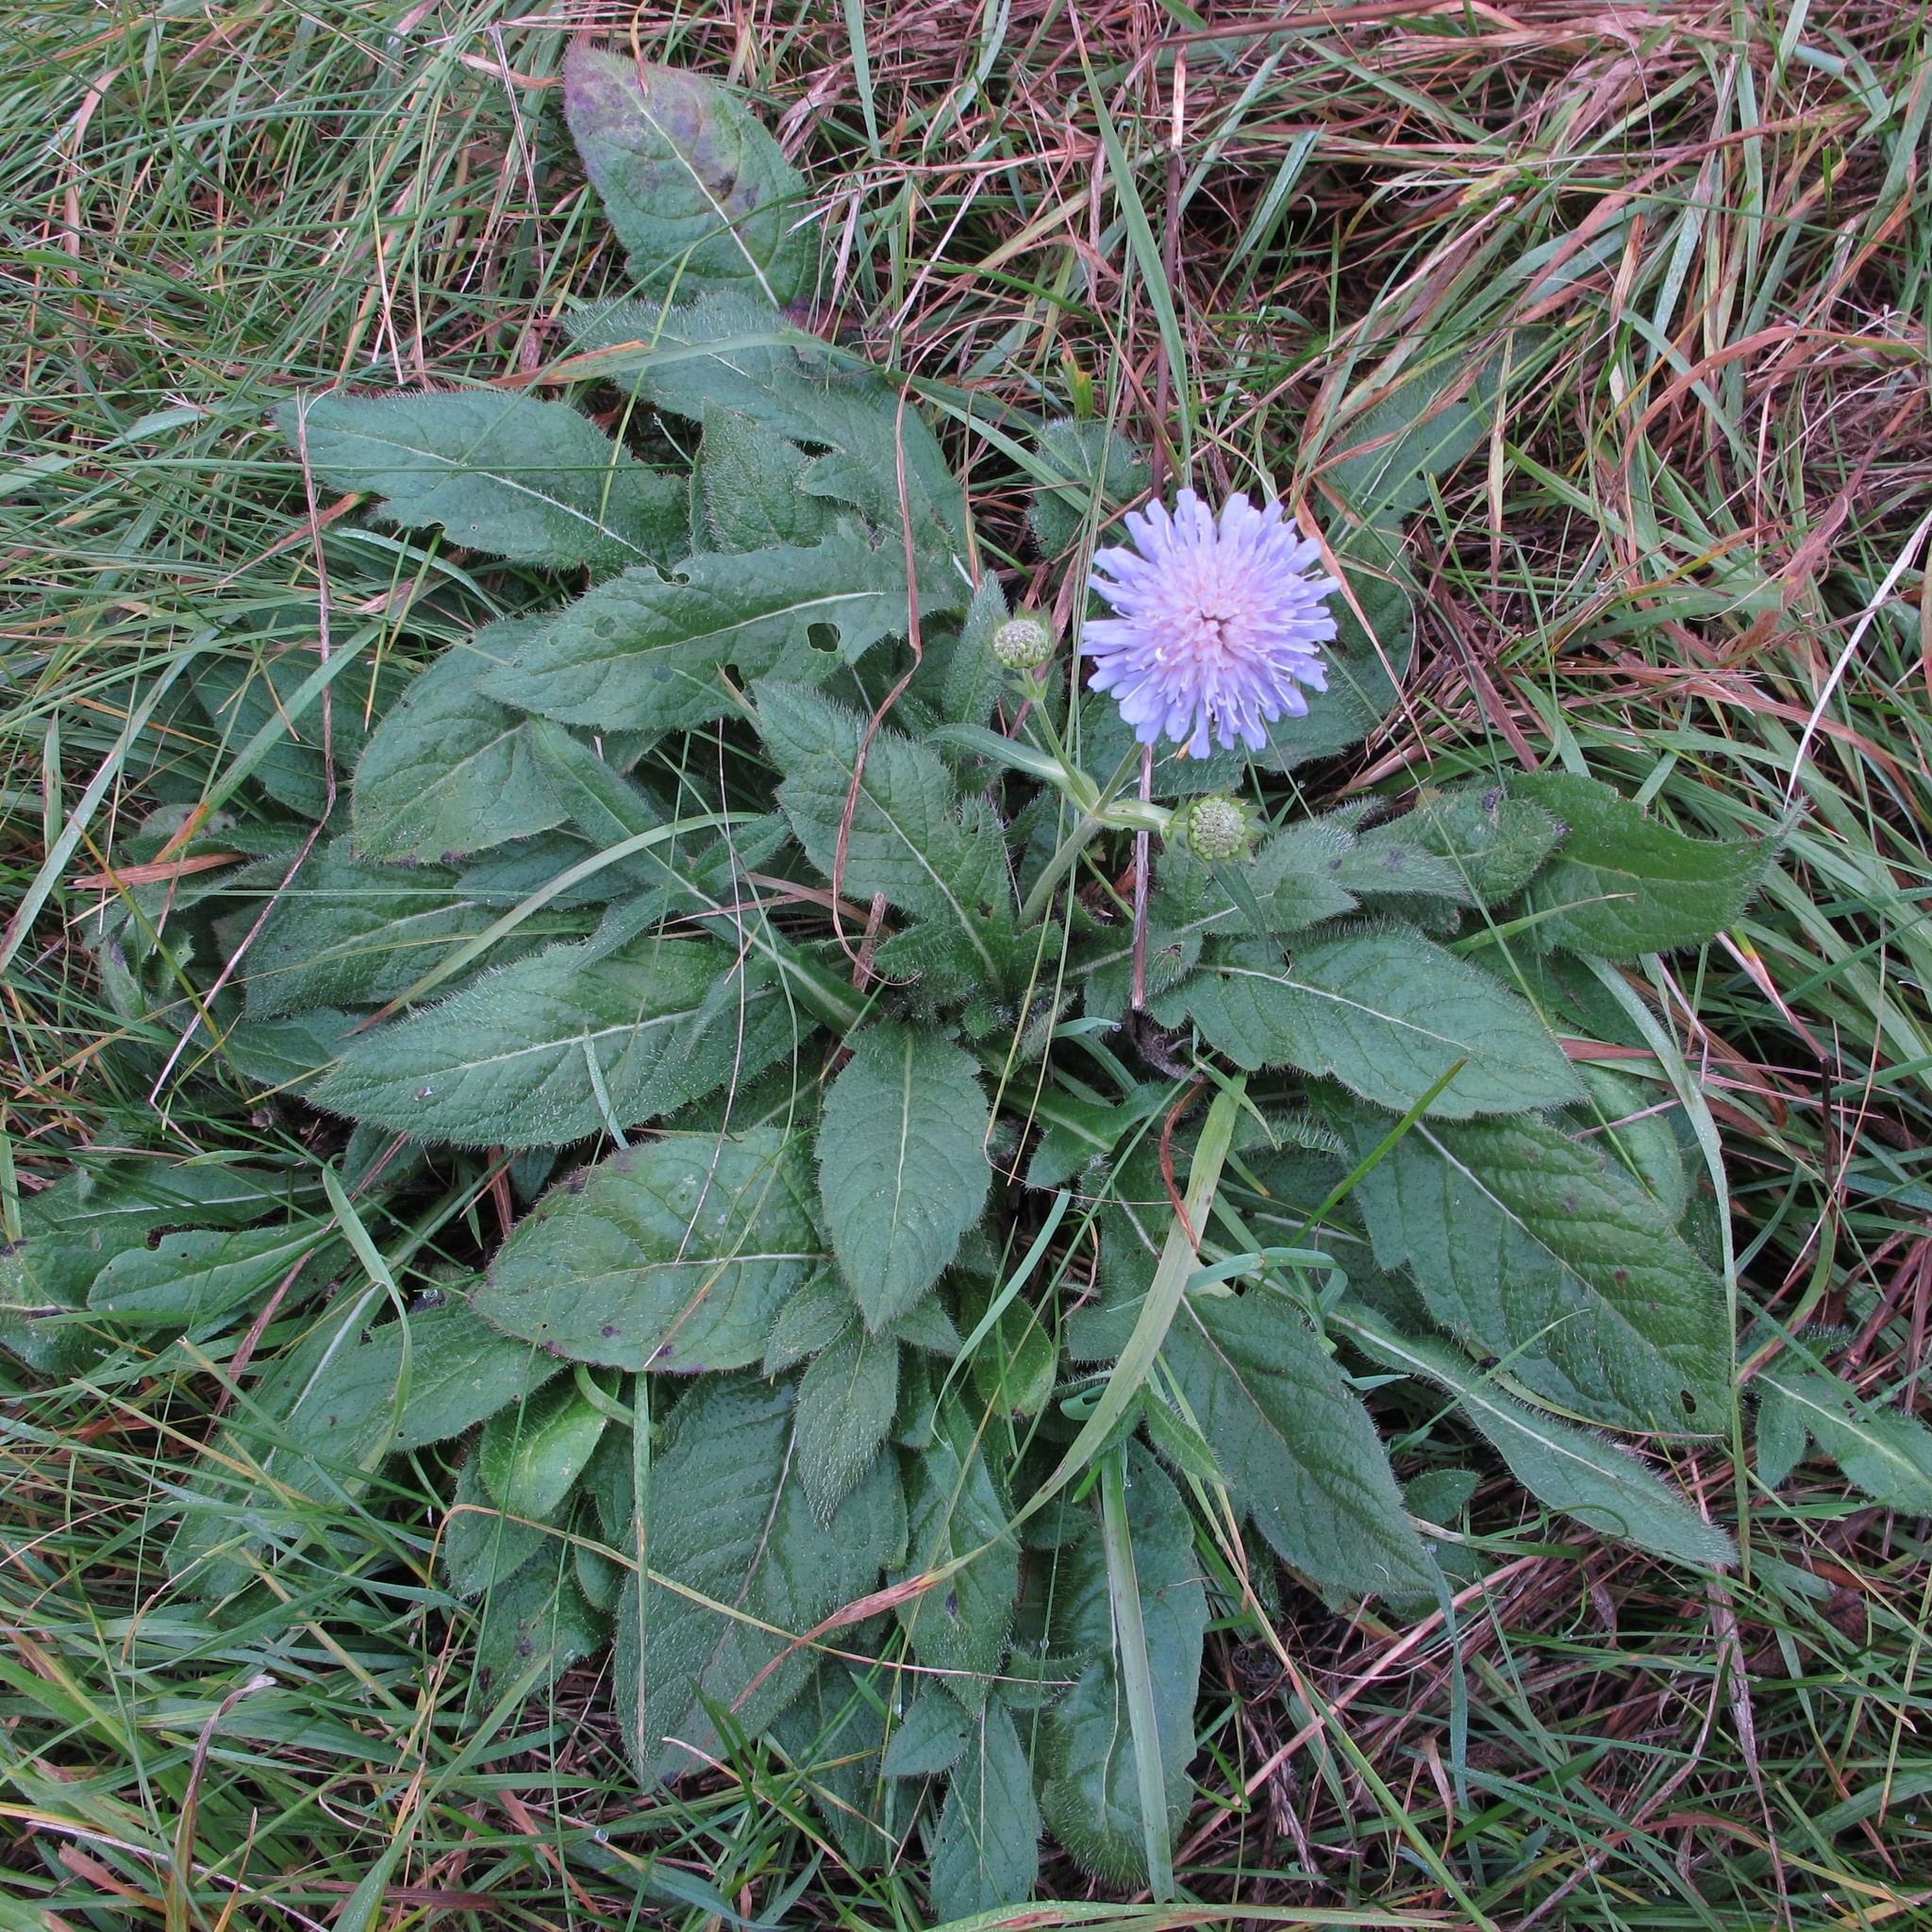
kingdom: Plantae
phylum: Tracheophyta
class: Magnoliopsida
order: Dipsacales
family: Caprifoliaceae
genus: Knautia
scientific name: Knautia arvensis
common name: Field scabiosa
